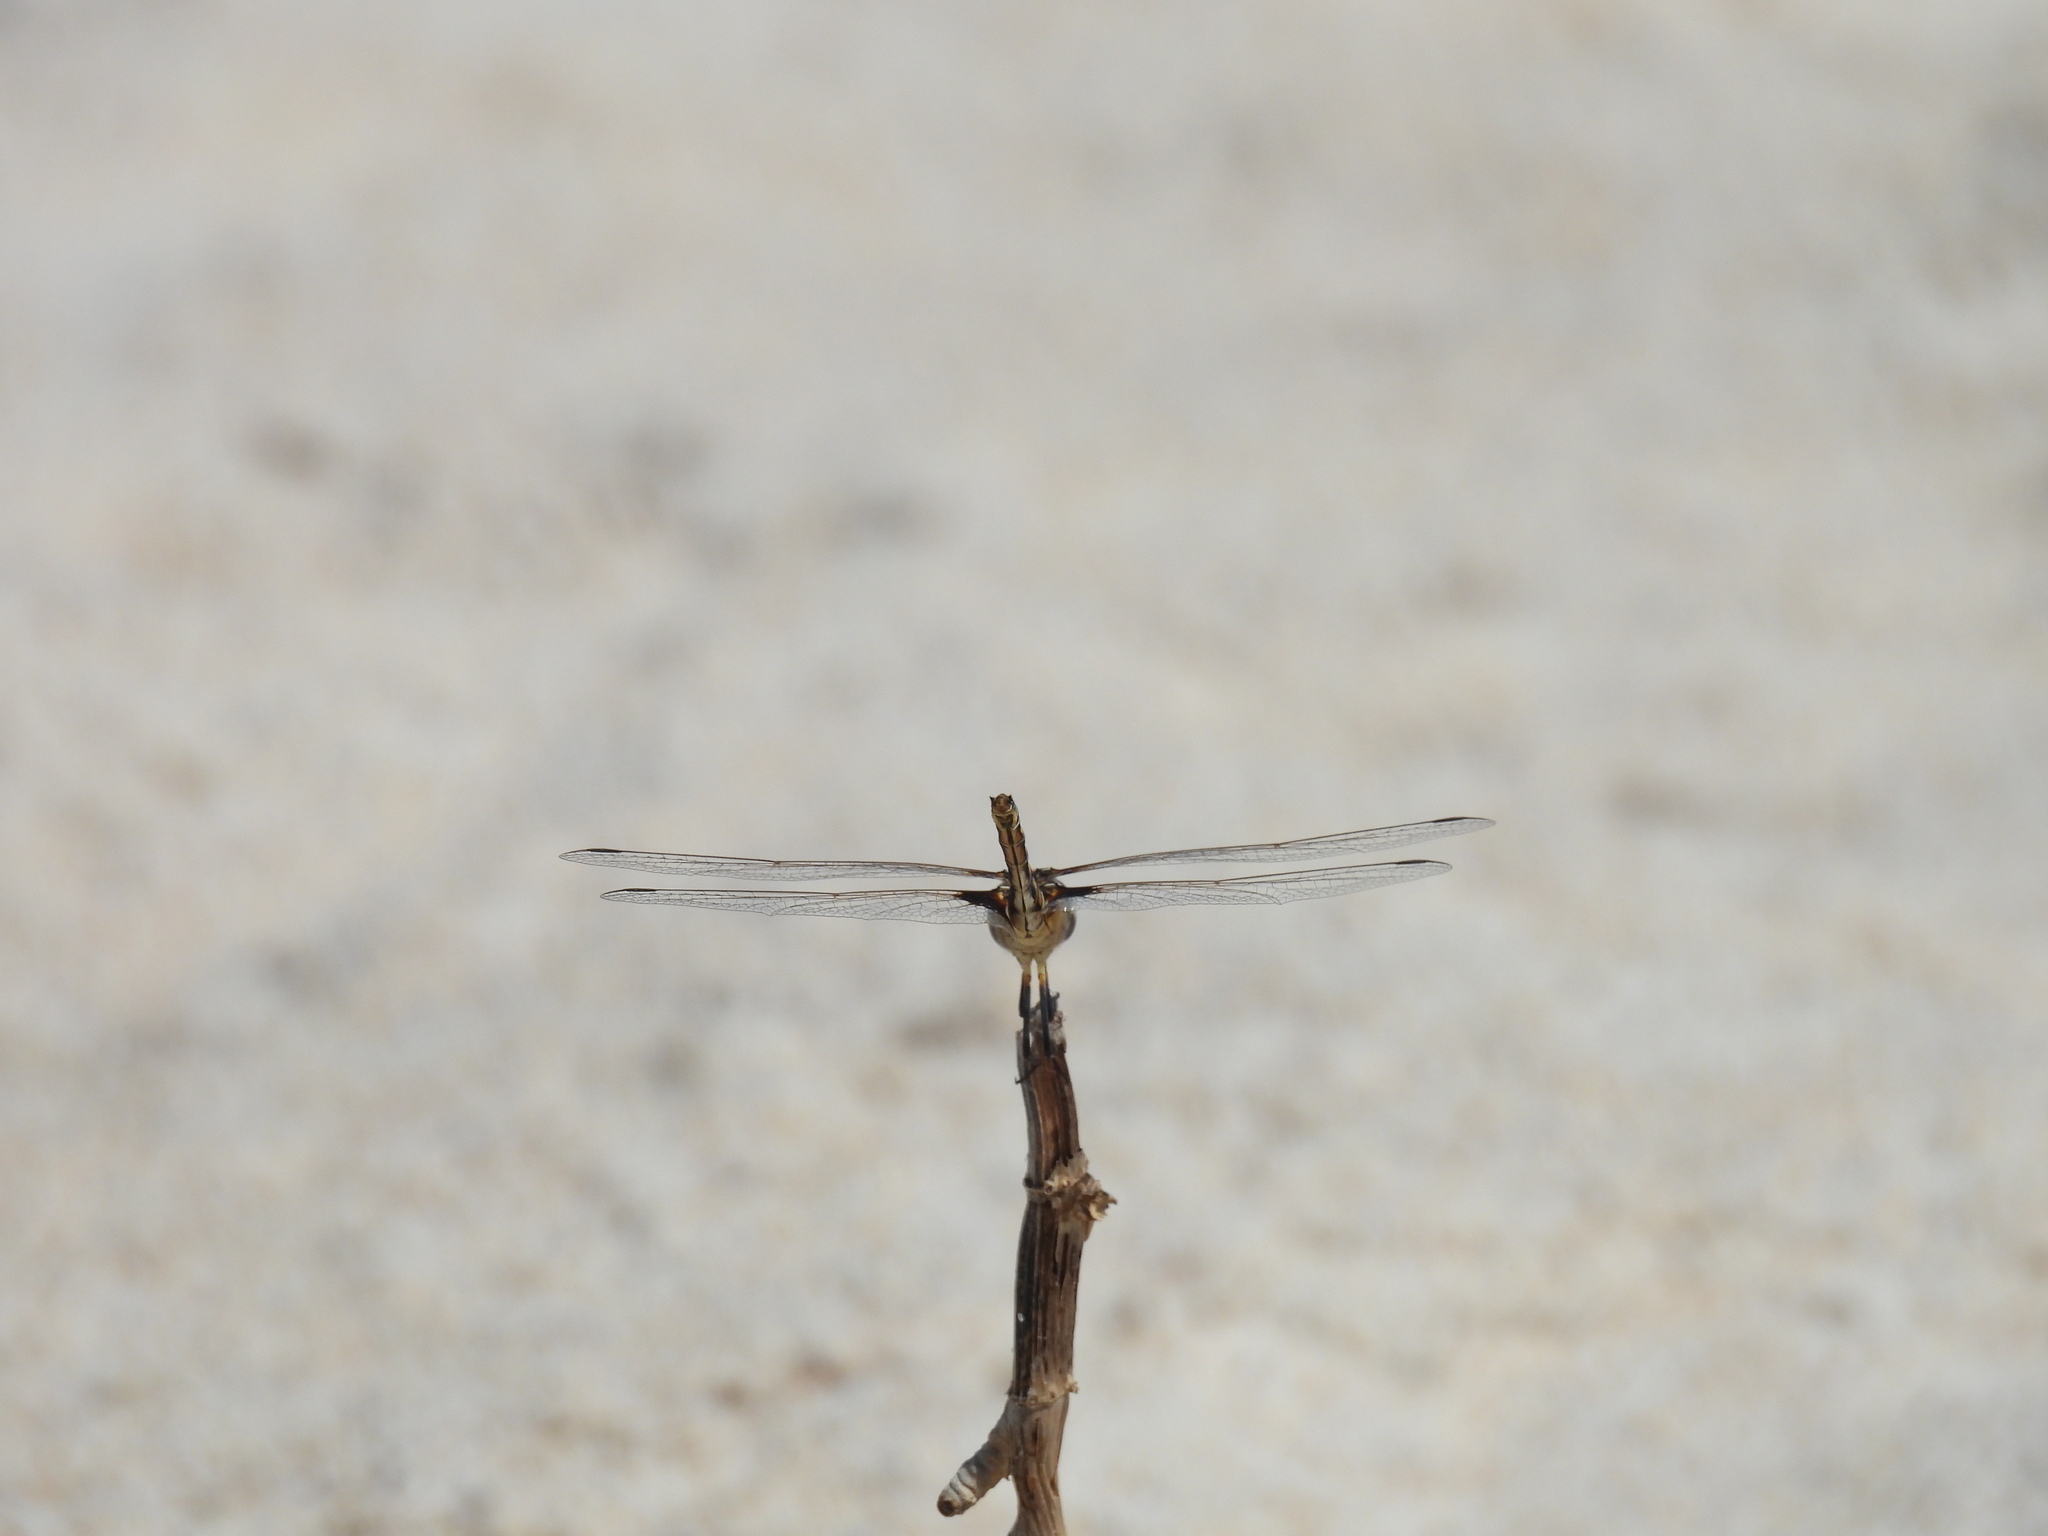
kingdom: Animalia
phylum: Arthropoda
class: Insecta
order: Odonata
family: Libellulidae
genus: Macrodiplax
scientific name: Macrodiplax balteata
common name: Marl pennant
